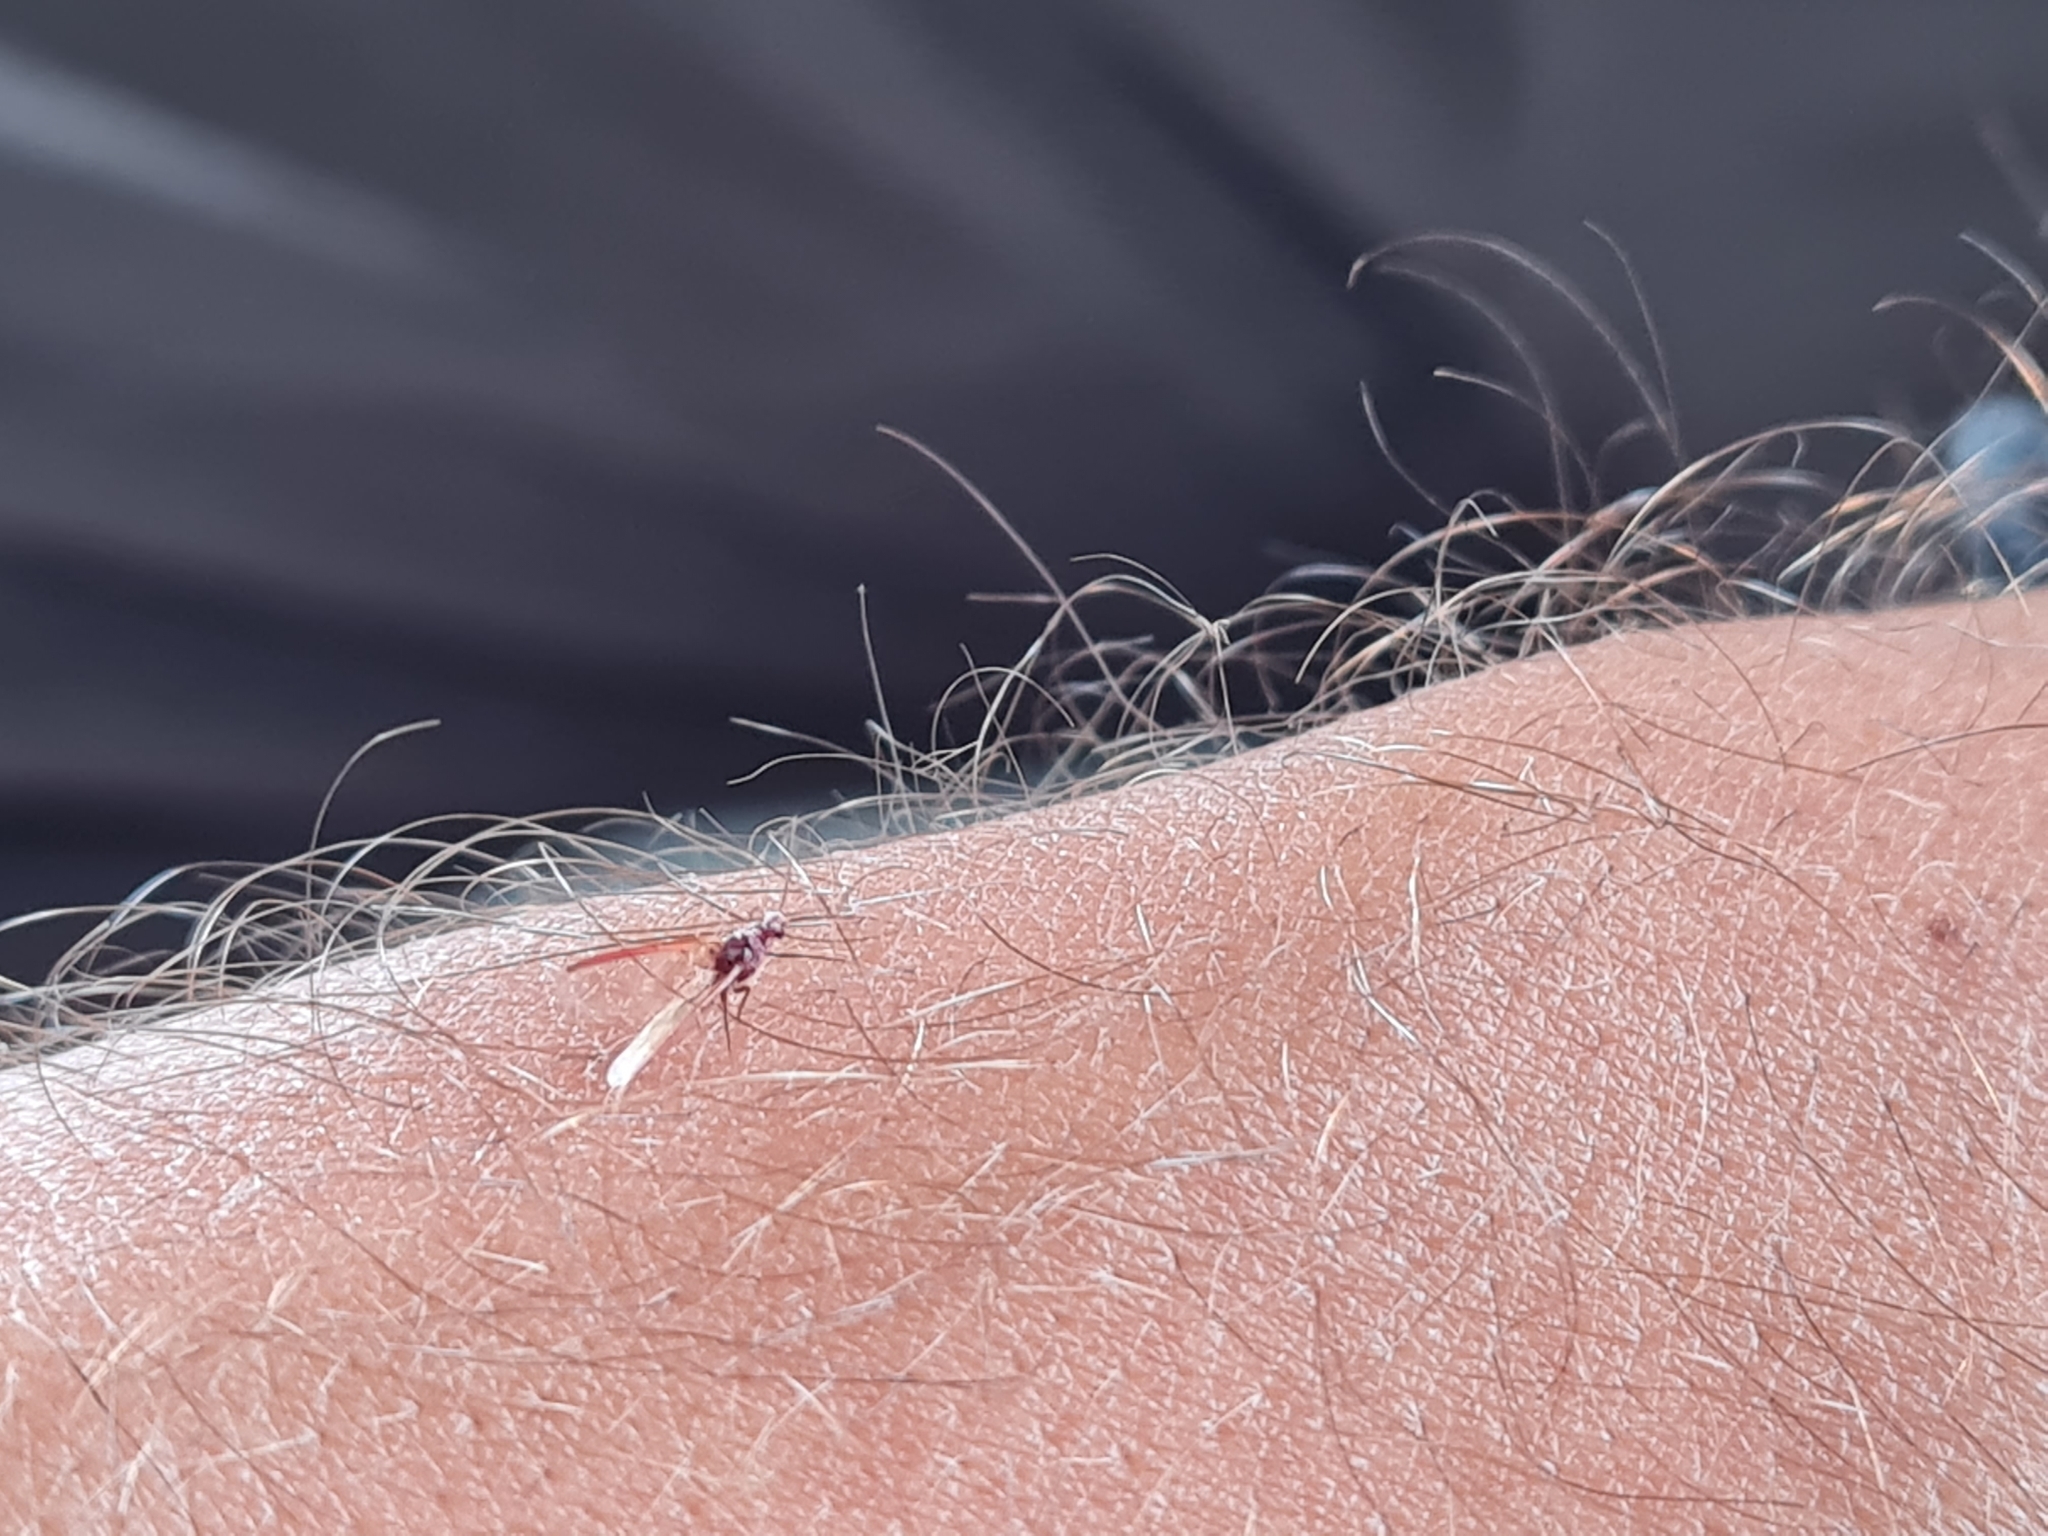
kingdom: Animalia
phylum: Arthropoda
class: Insecta
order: Hemiptera
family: Margarodidae
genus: Coelostomidia
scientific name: Coelostomidia zealandica
